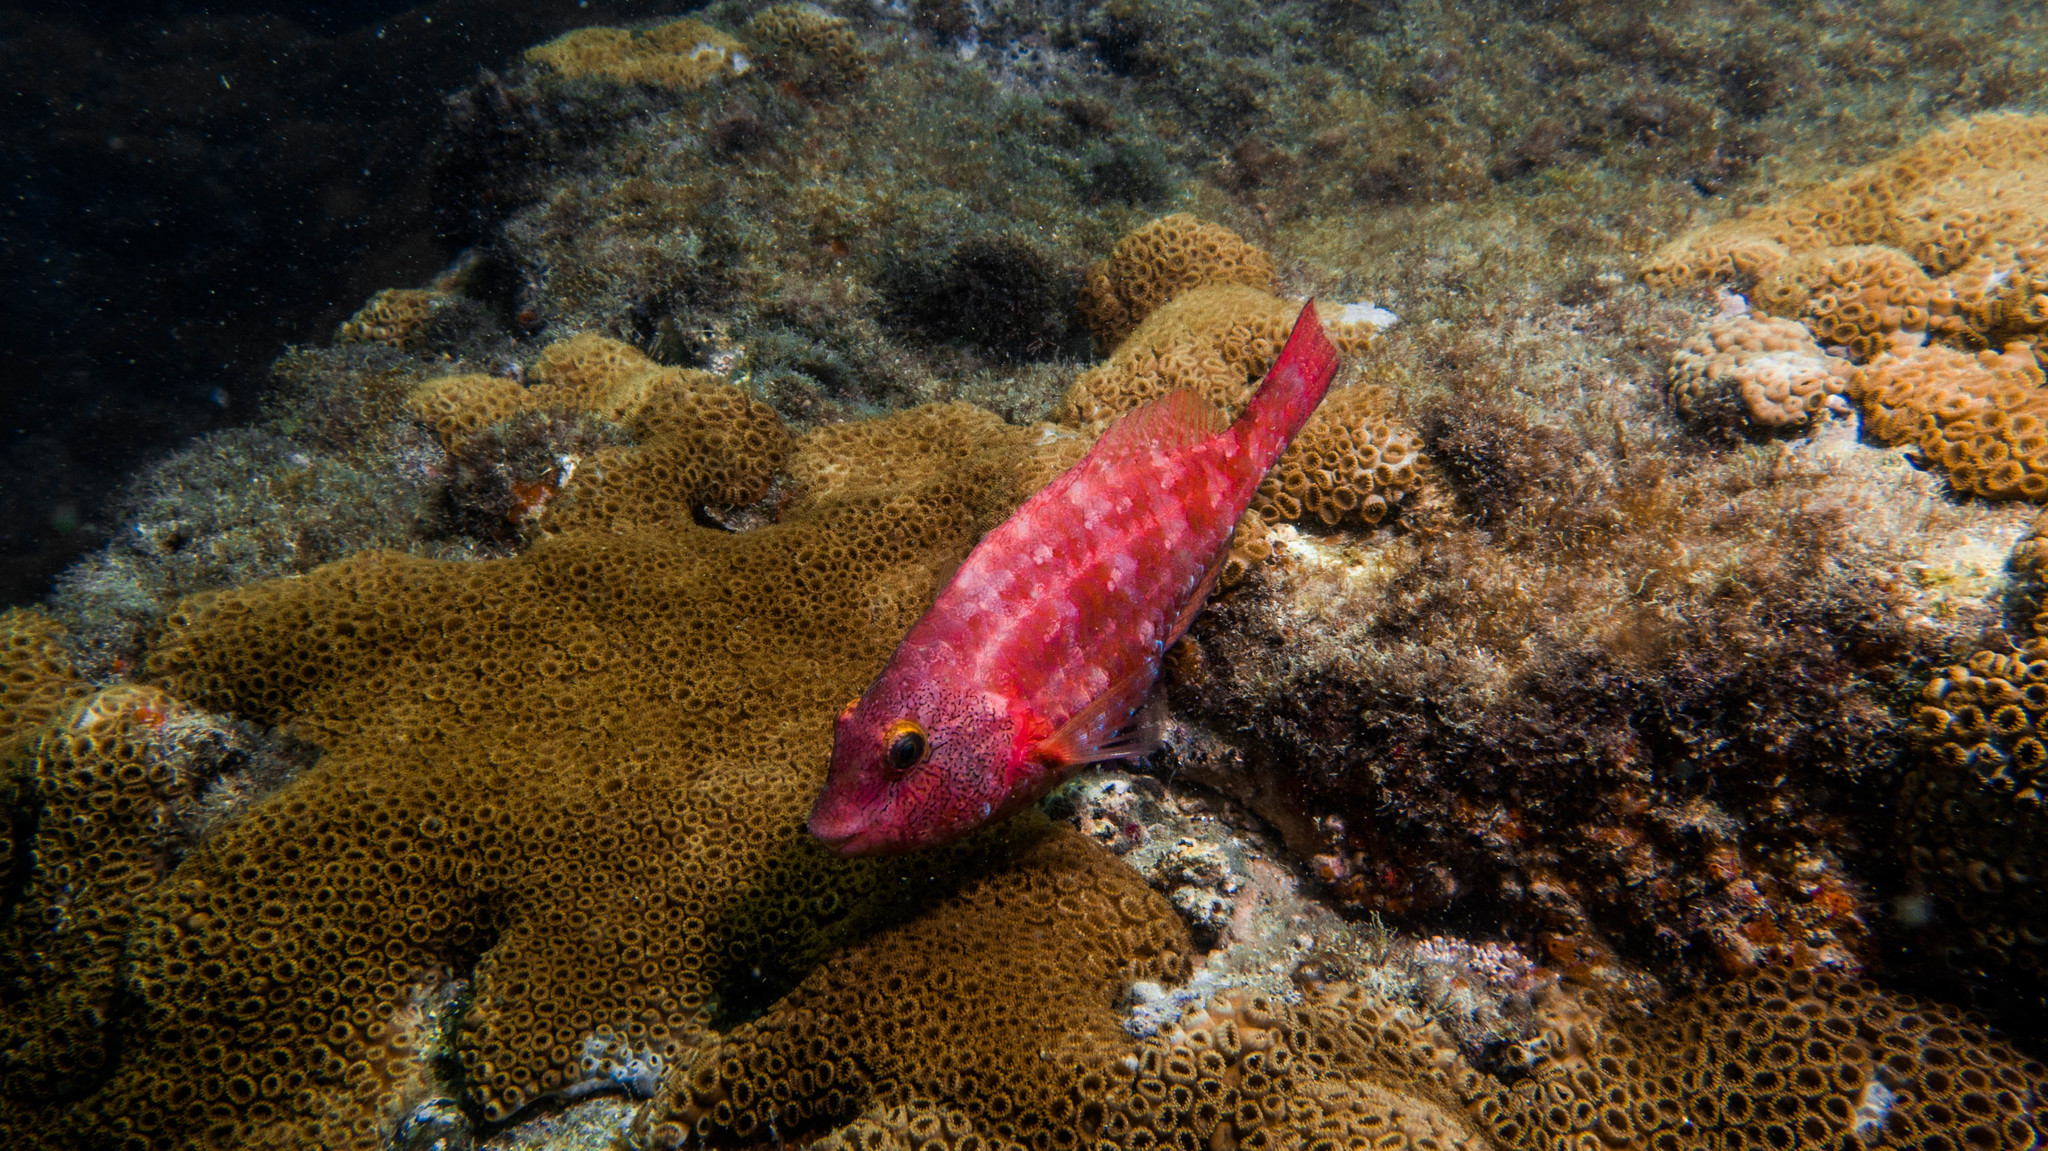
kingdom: Animalia
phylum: Chordata
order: Perciformes
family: Scaridae
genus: Sparisoma
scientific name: Sparisoma tuiupiranga
